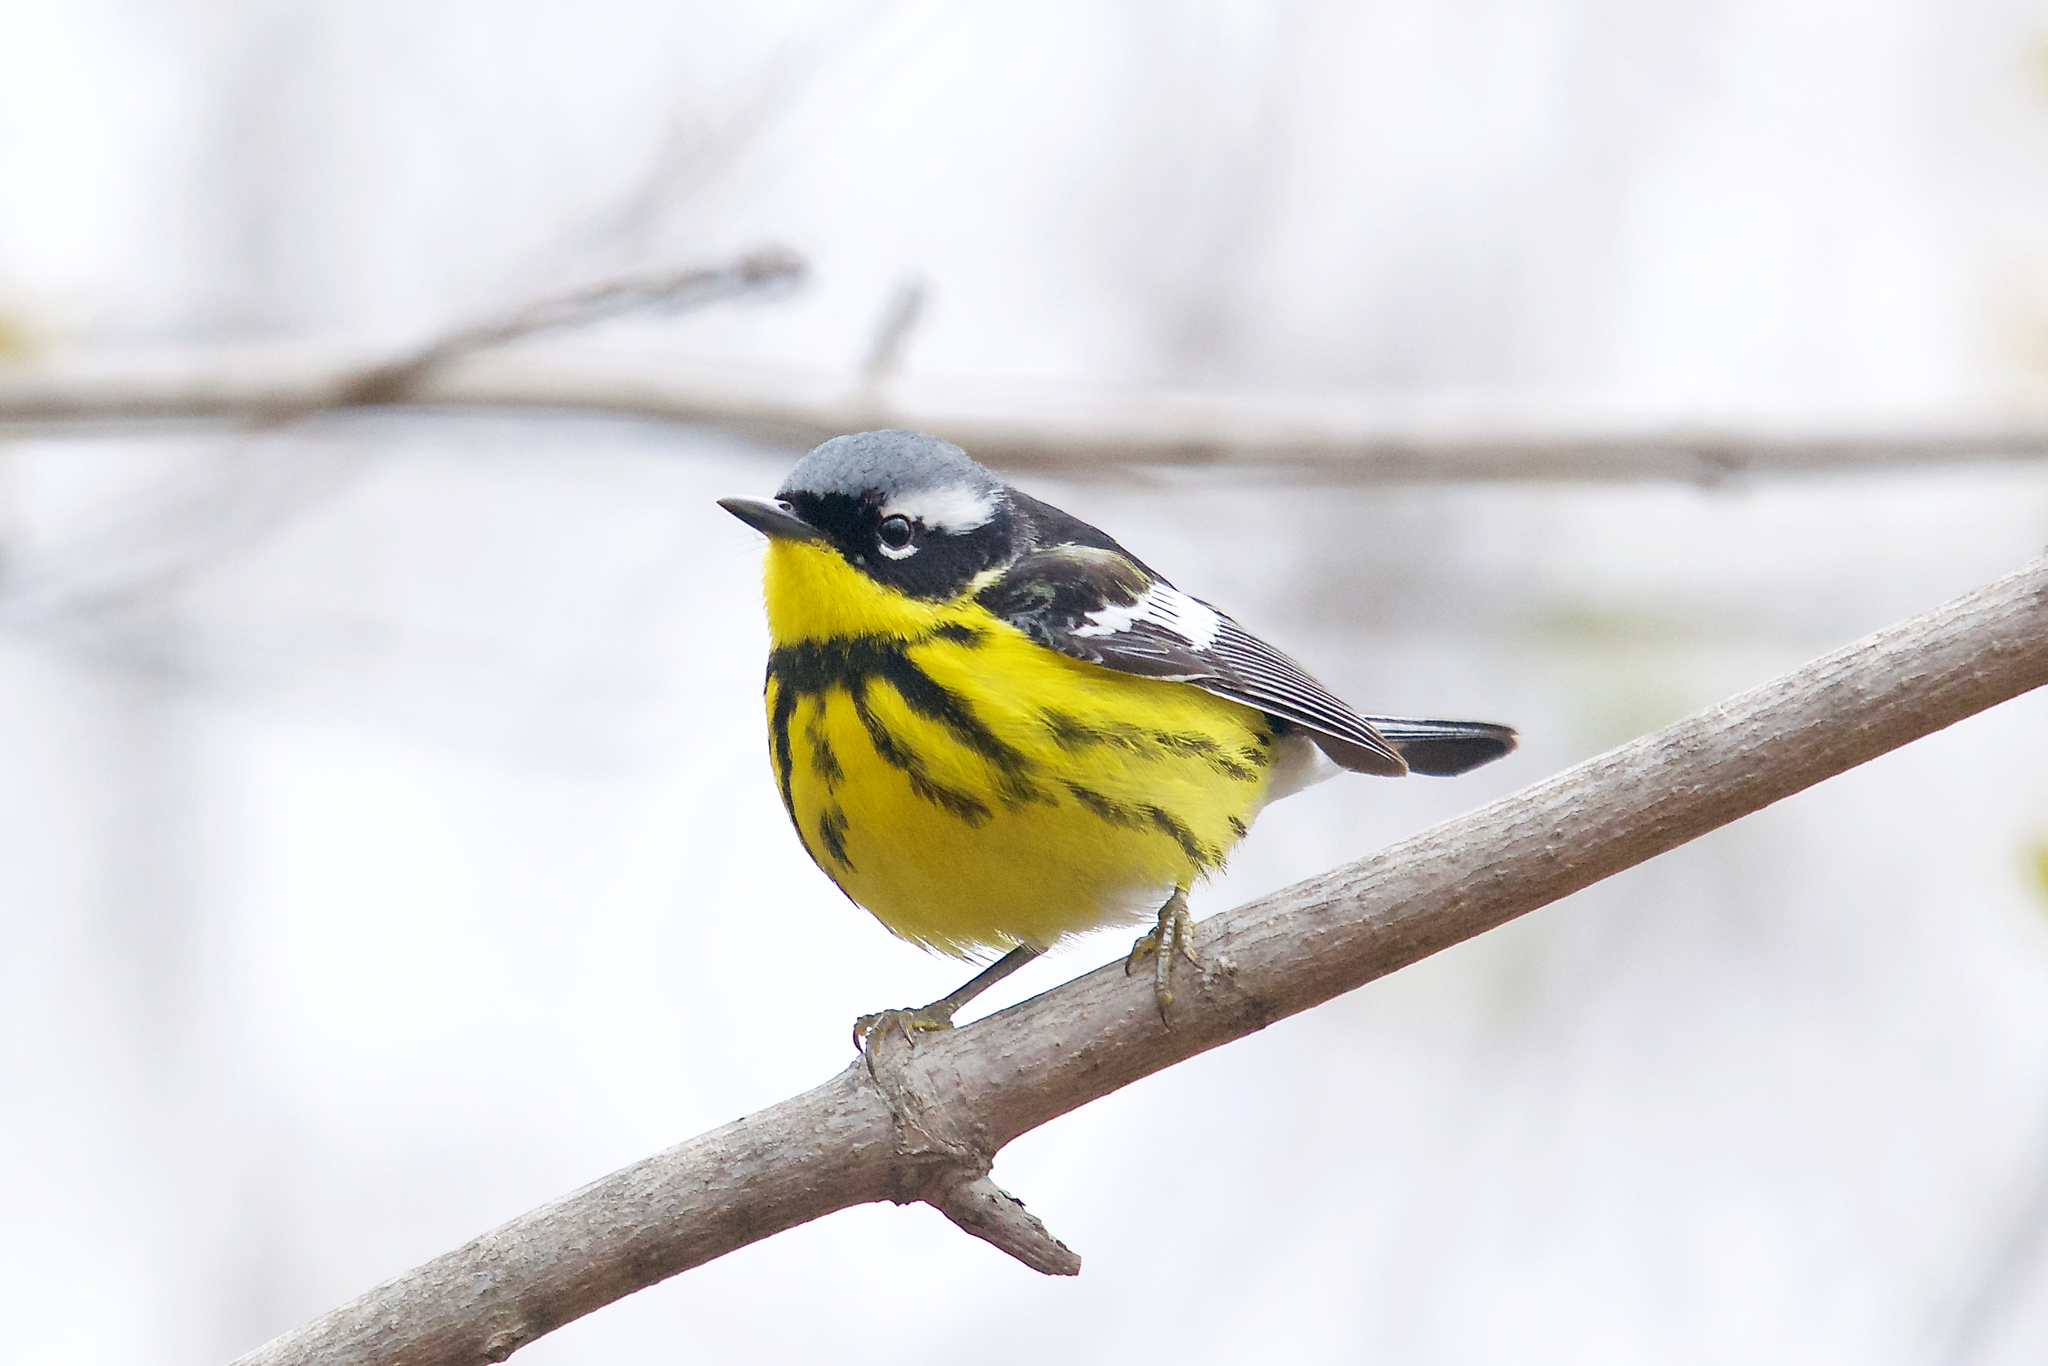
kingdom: Animalia
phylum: Chordata
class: Aves
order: Passeriformes
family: Parulidae
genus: Setophaga
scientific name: Setophaga magnolia
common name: Magnolia warbler
